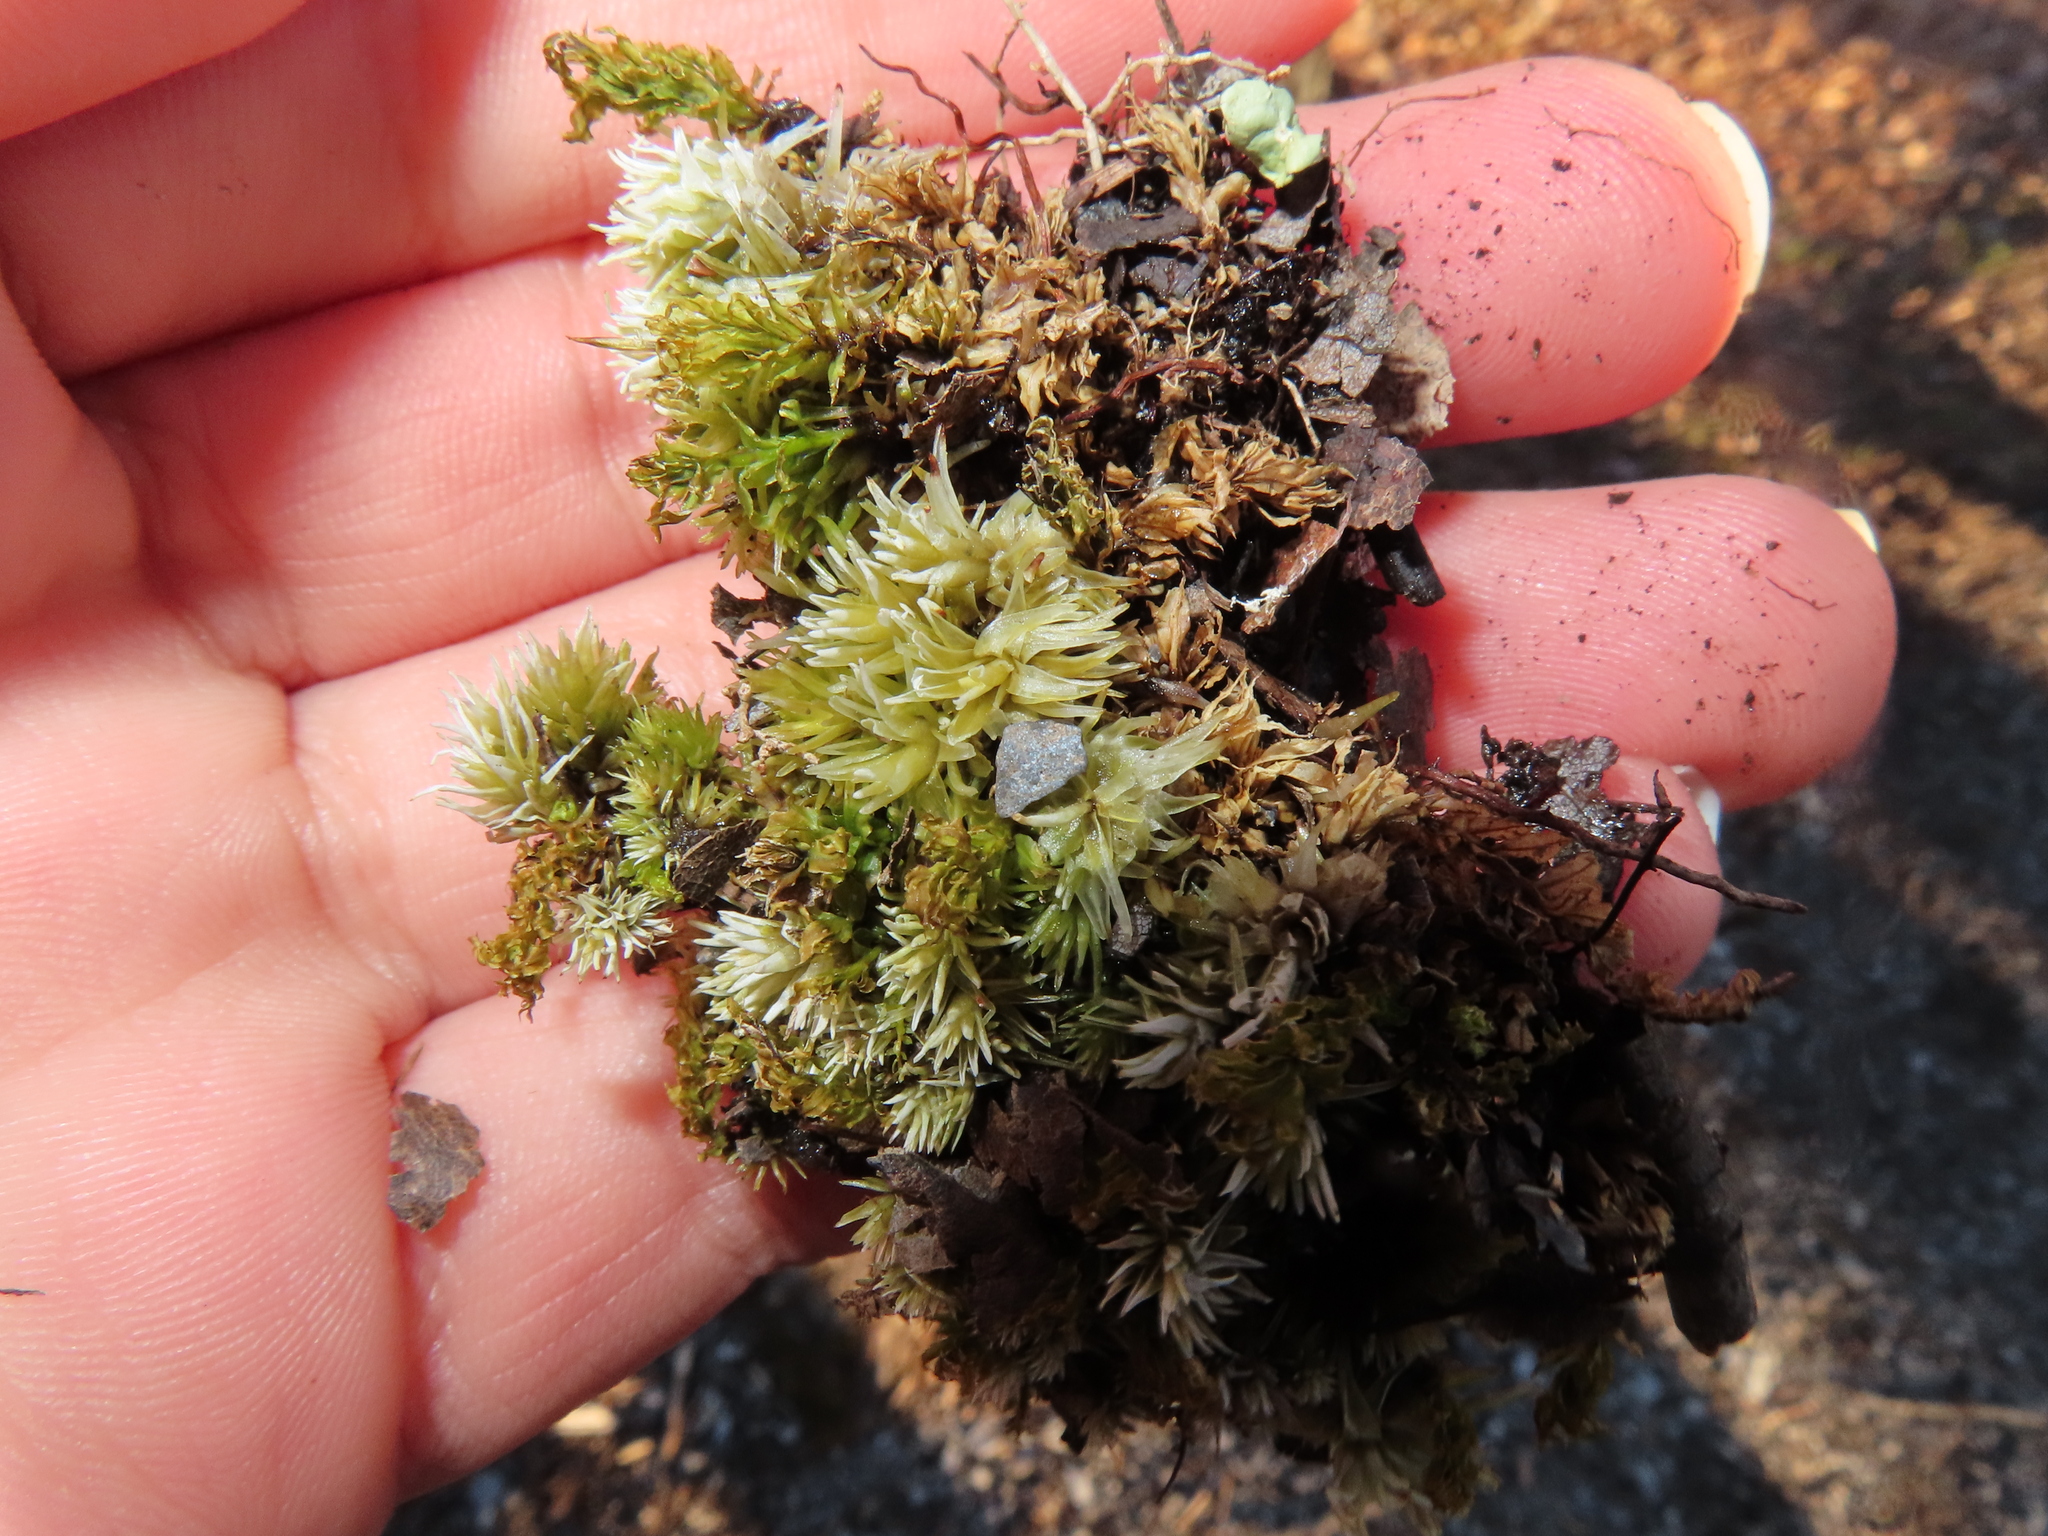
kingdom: Plantae
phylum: Bryophyta
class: Bryopsida
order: Dicranales
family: Leucobryaceae
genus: Leucobryum
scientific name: Leucobryum glaucum
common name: Large white-moss
